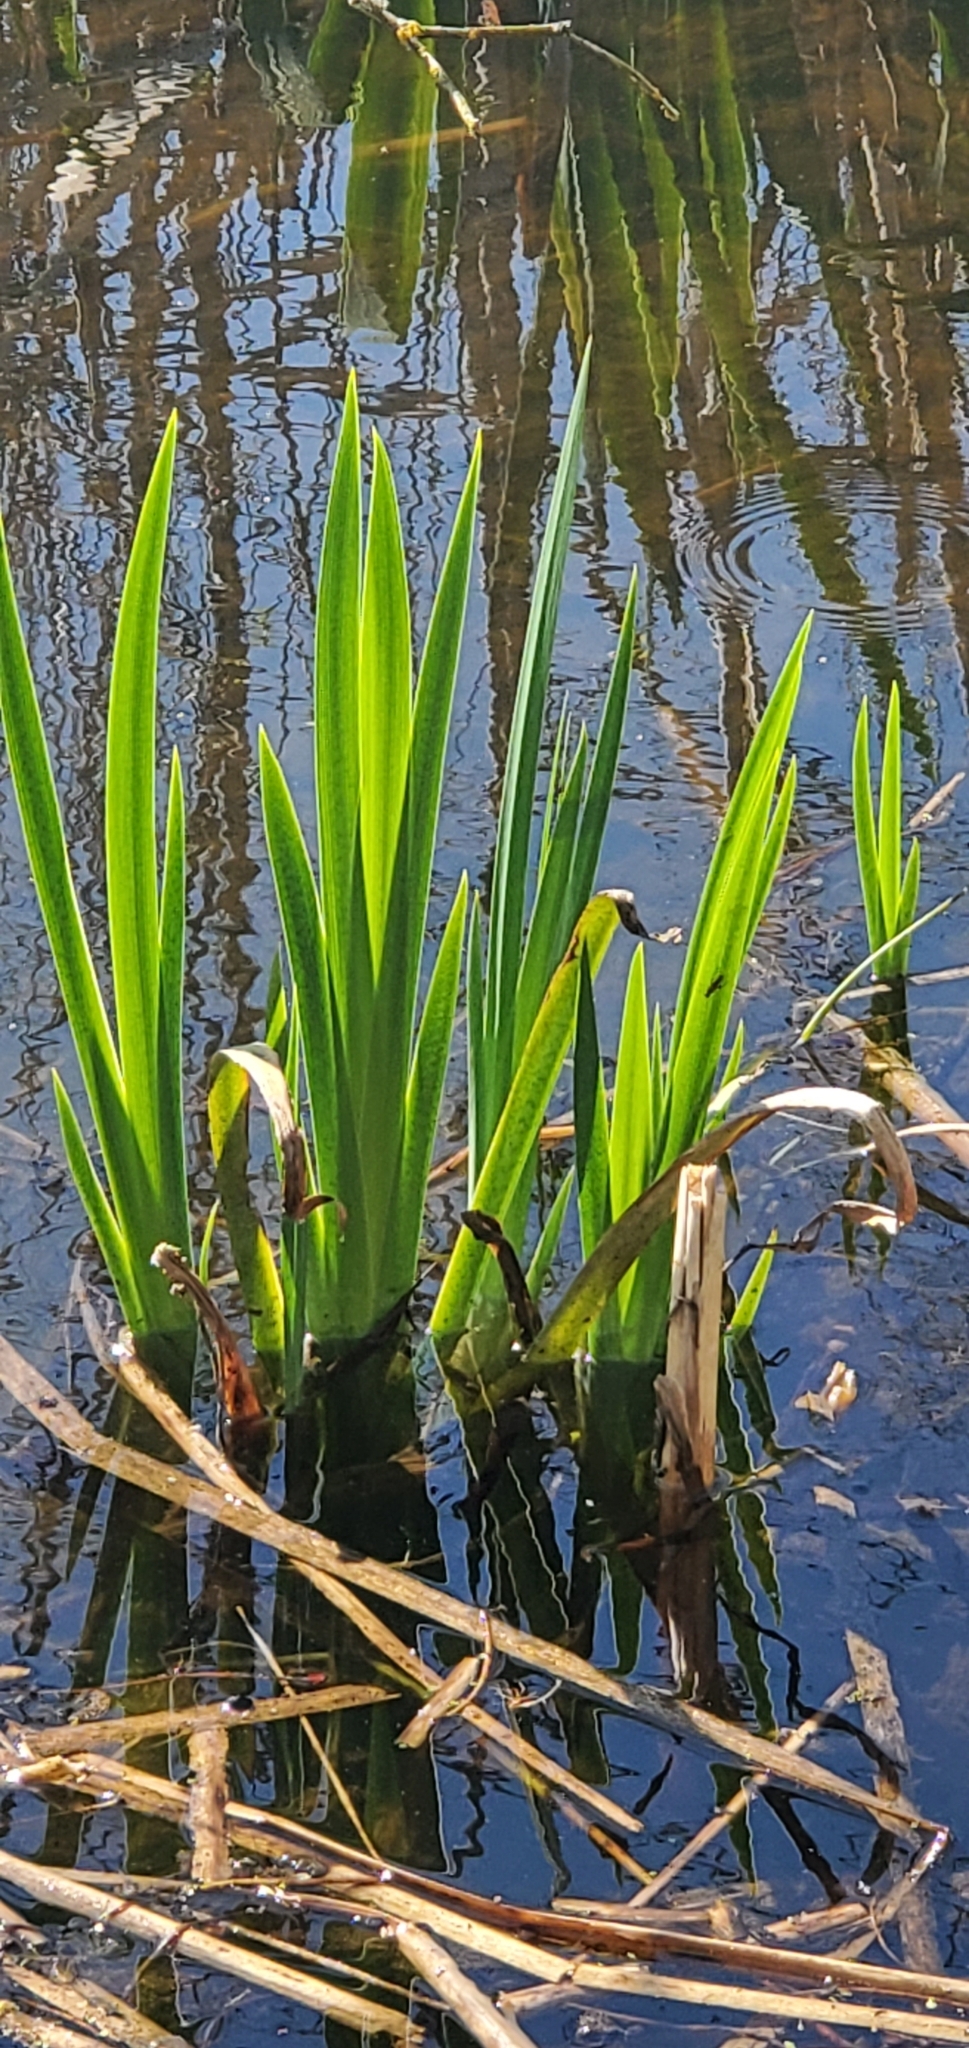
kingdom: Plantae
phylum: Tracheophyta
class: Liliopsida
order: Asparagales
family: Iridaceae
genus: Iris
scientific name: Iris pseudacorus
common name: Yellow flag
